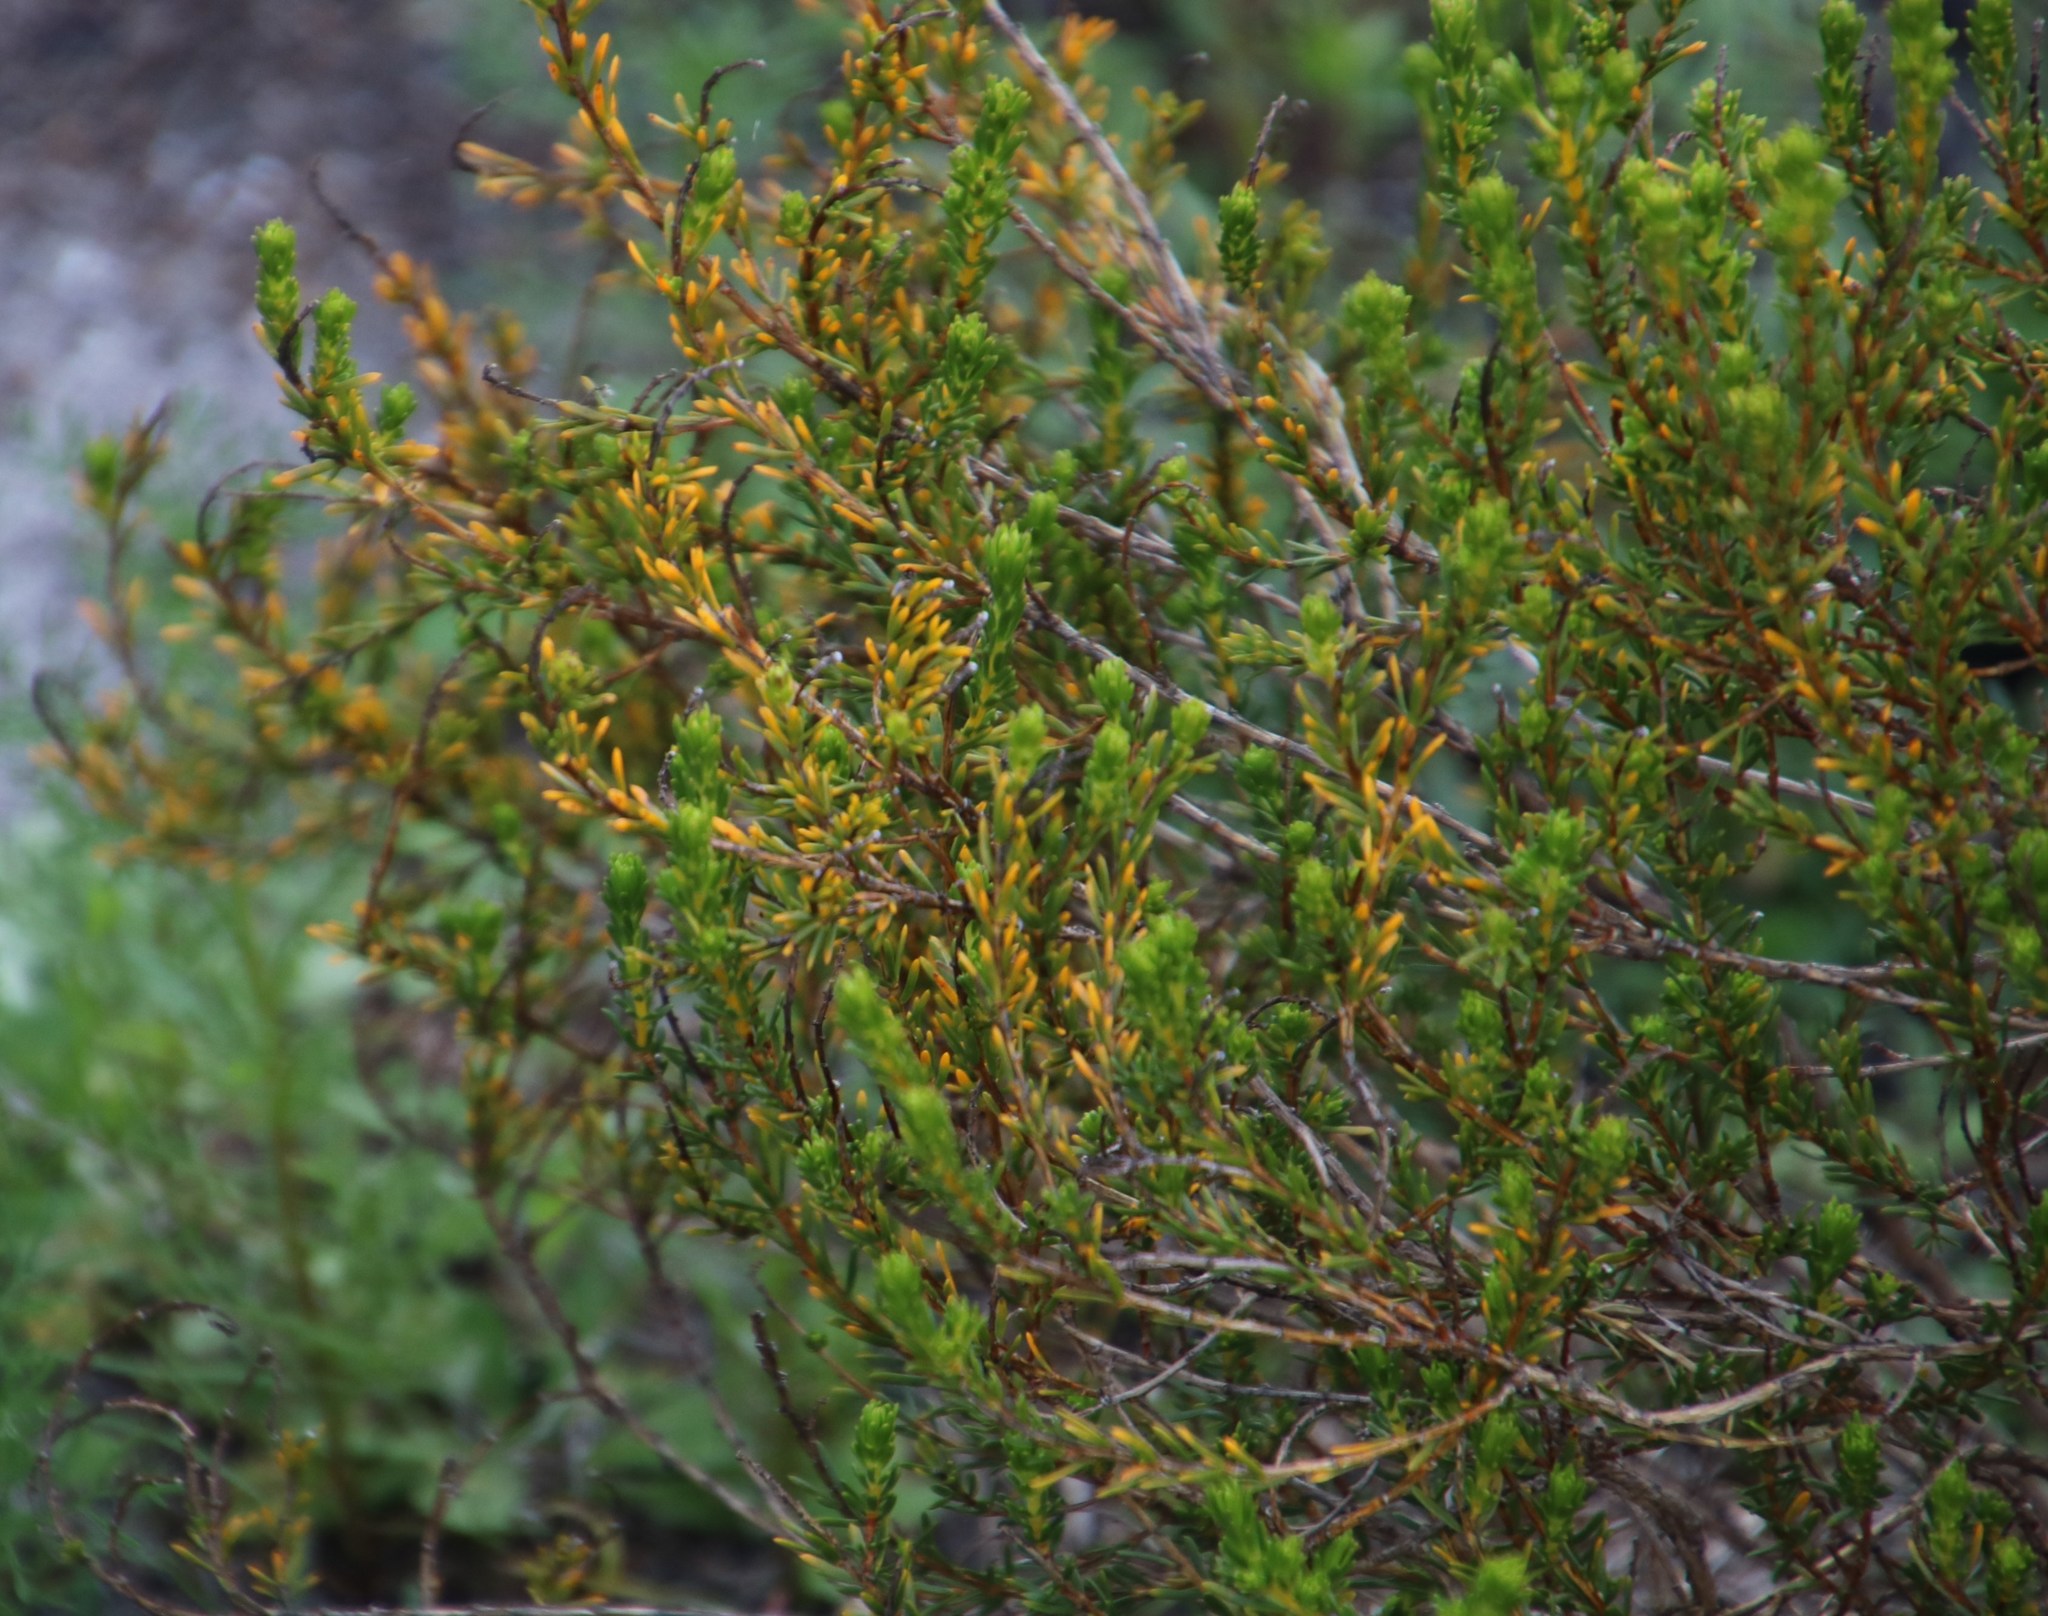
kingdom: Plantae
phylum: Tracheophyta
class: Magnoliopsida
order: Fabales
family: Fabaceae
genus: Aspalathus
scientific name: Aspalathus callosa
